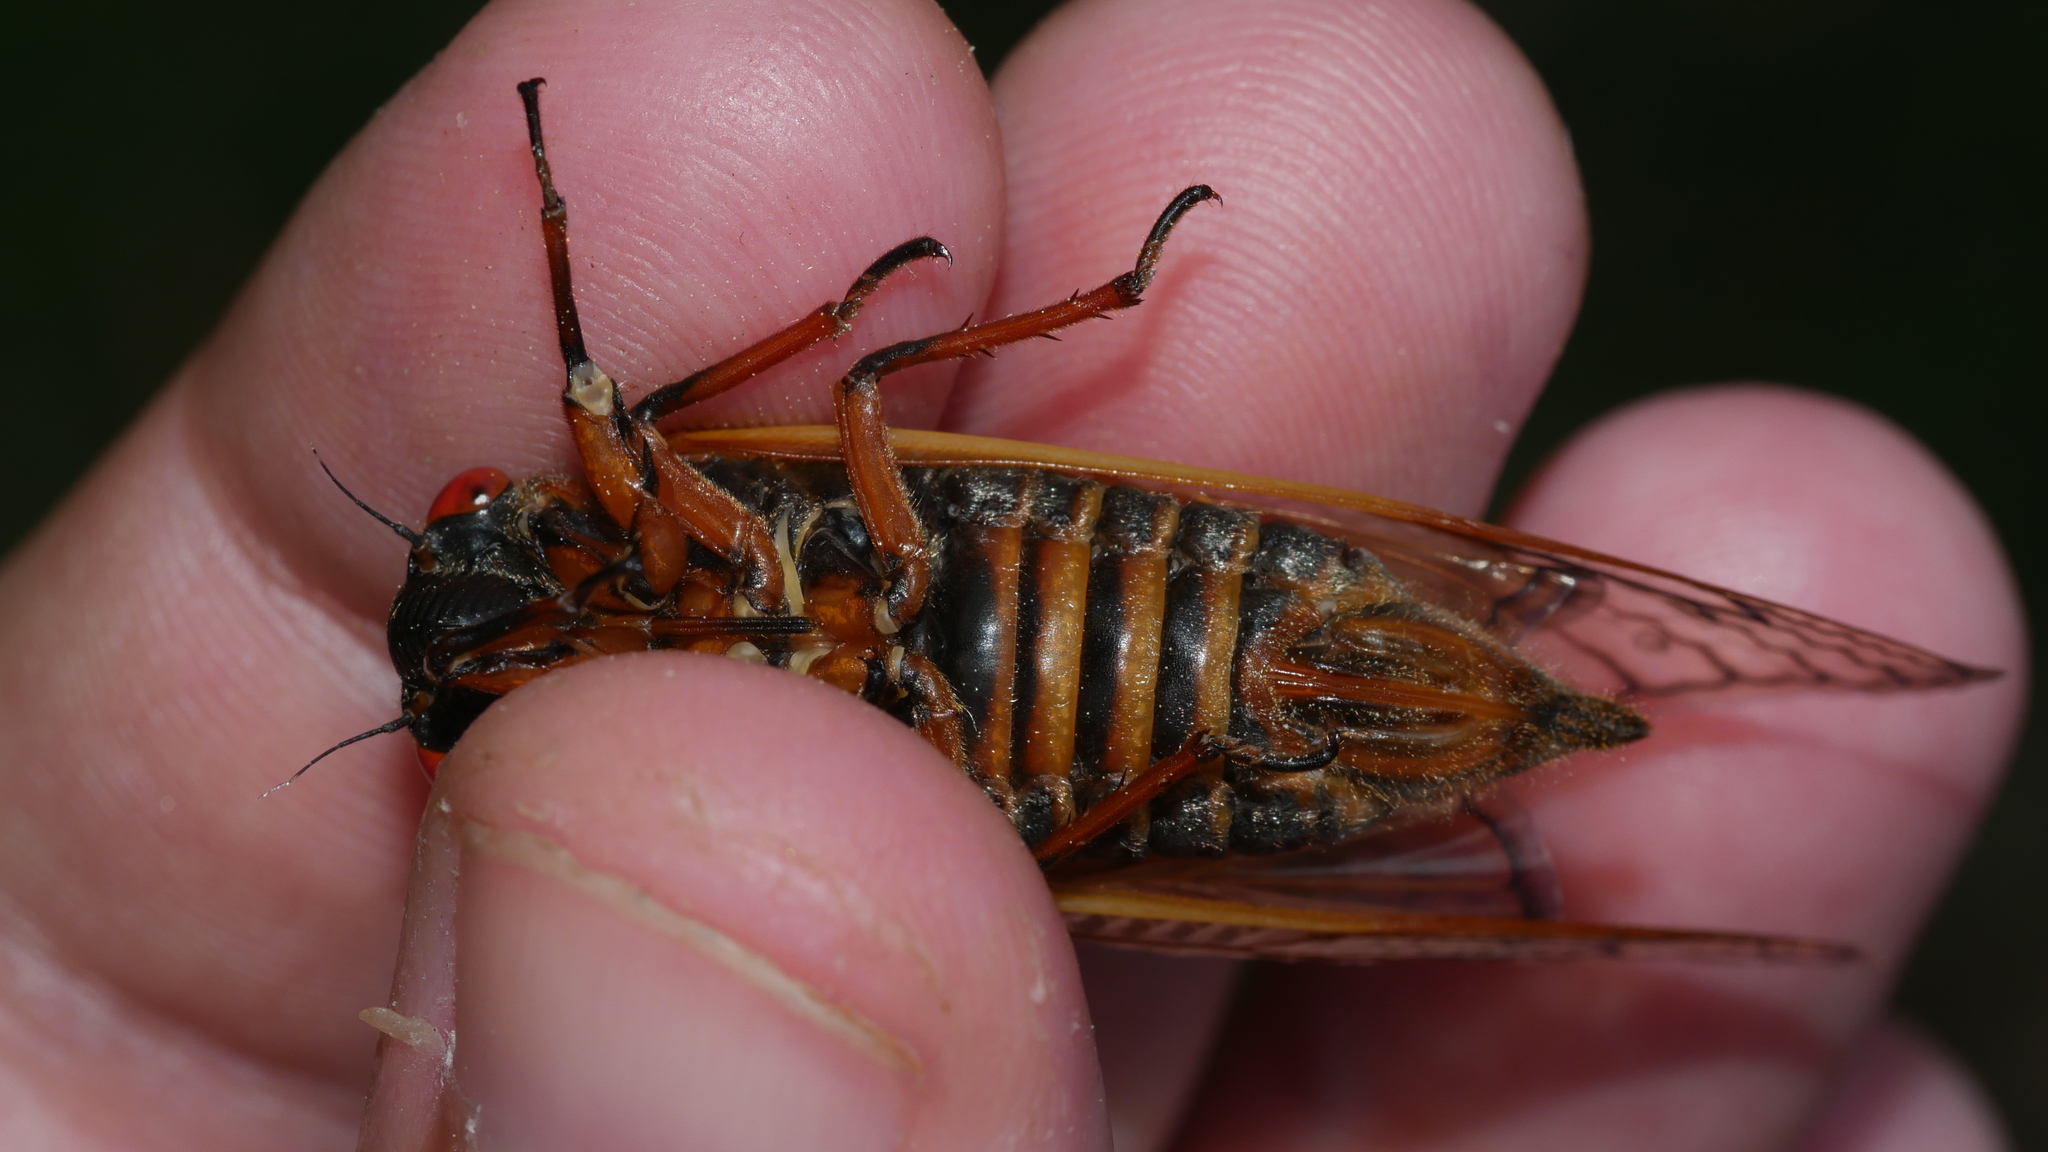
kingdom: Animalia
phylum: Arthropoda
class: Insecta
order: Hemiptera
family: Cicadidae
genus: Magicicada
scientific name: Magicicada septendecim
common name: Periodical cicada
